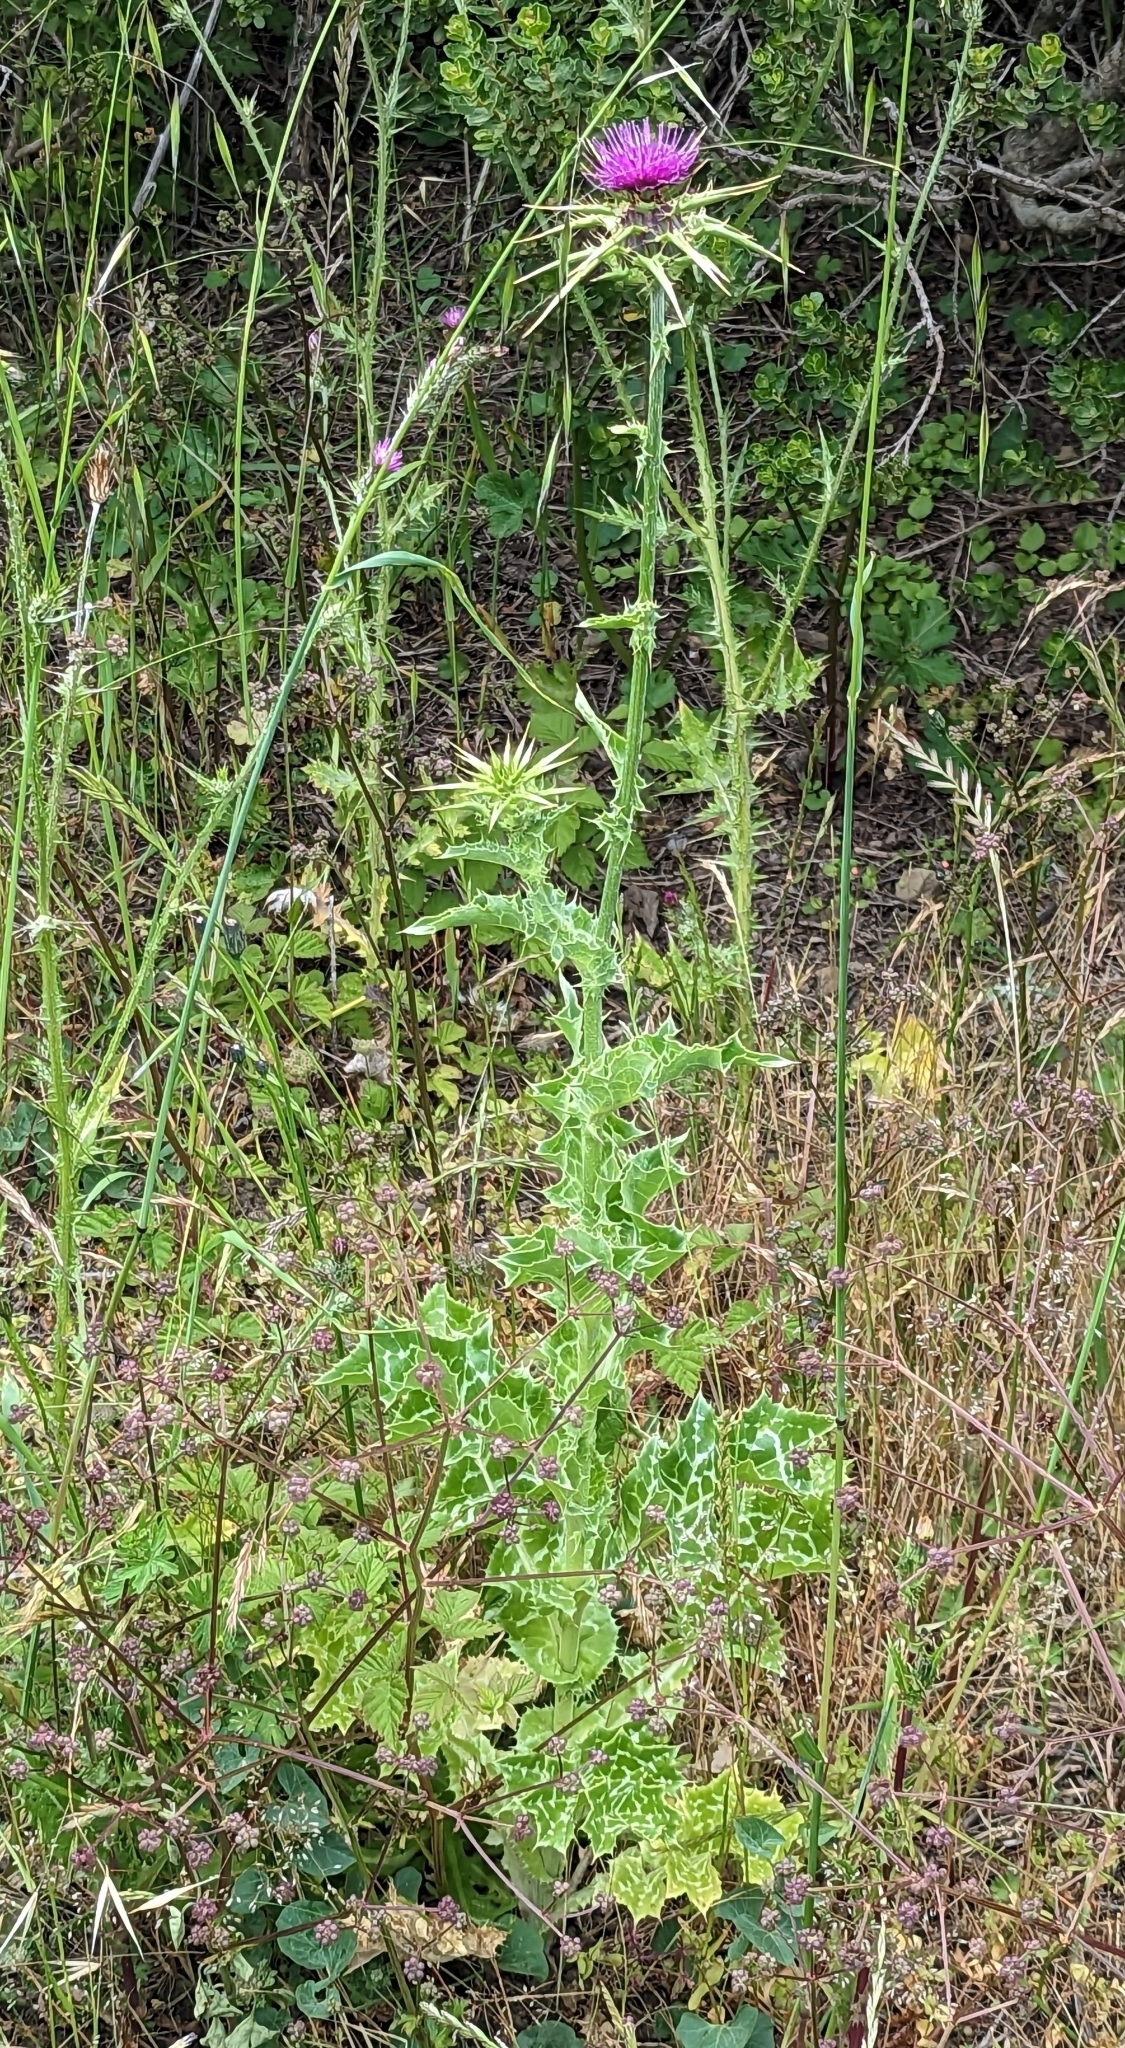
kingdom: Plantae
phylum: Tracheophyta
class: Magnoliopsida
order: Asterales
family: Asteraceae
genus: Silybum
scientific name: Silybum marianum
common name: Milk thistle
